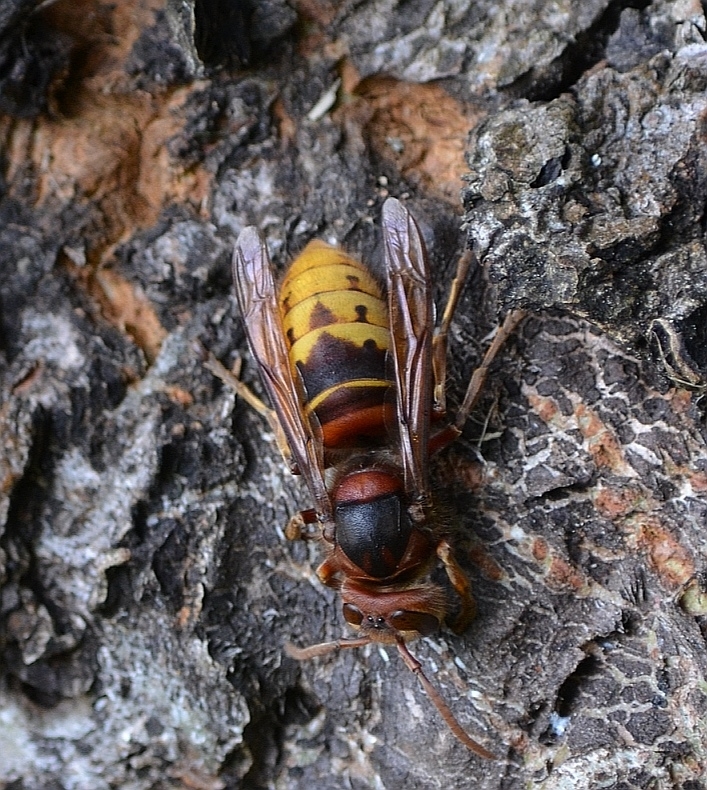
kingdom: Animalia
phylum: Arthropoda
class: Insecta
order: Hymenoptera
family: Vespidae
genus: Vespa
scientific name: Vespa crabro
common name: Hornet
